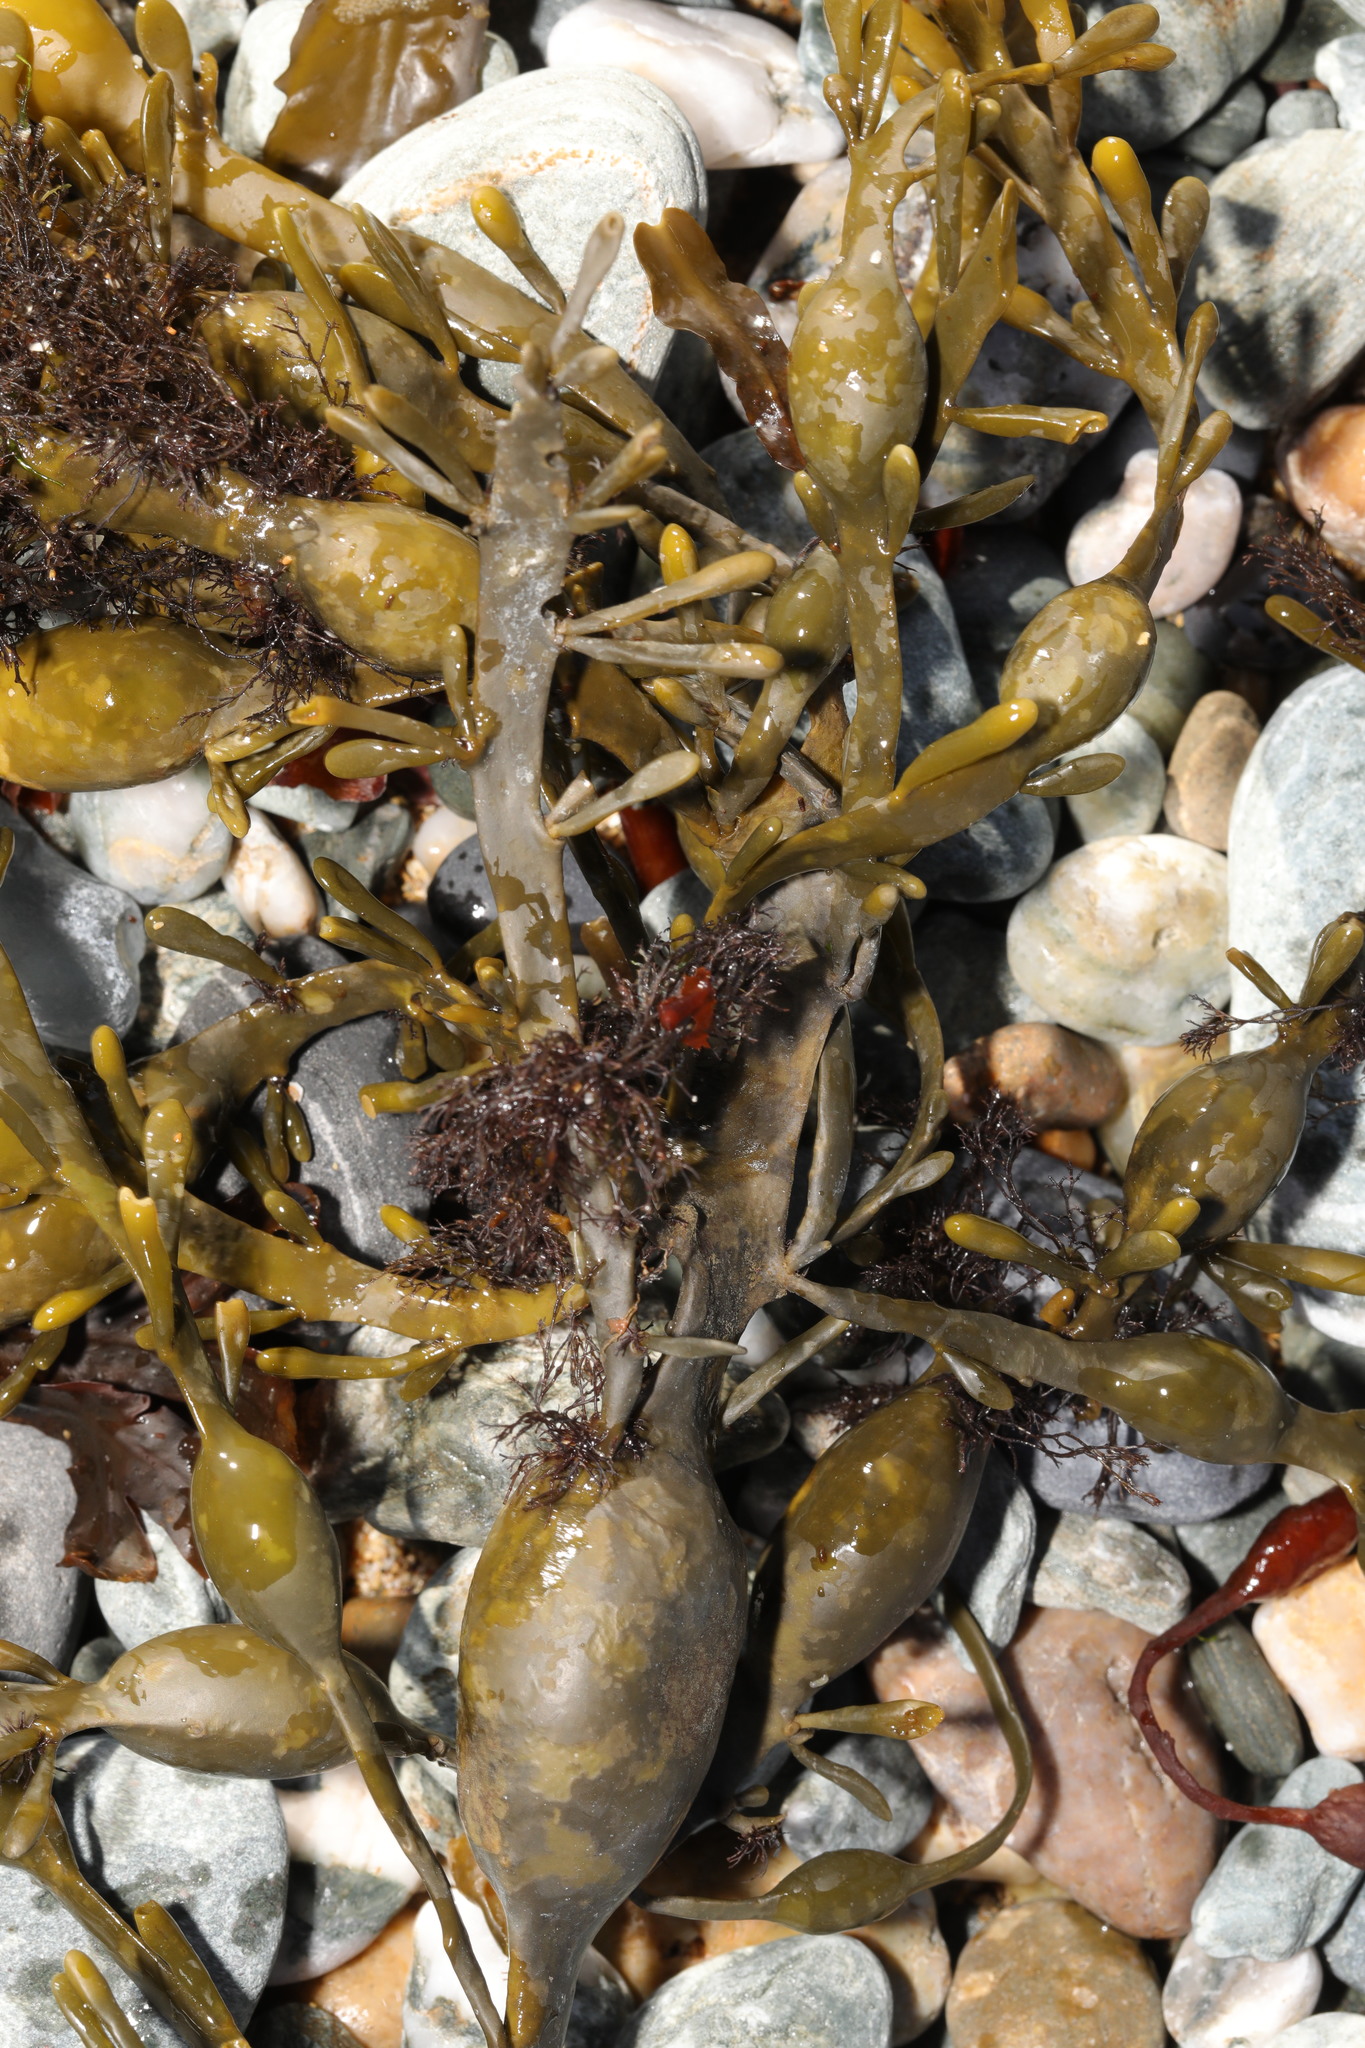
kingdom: Chromista
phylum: Ochrophyta
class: Phaeophyceae
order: Fucales
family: Fucaceae
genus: Ascophyllum
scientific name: Ascophyllum nodosum
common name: Knotted wrack
